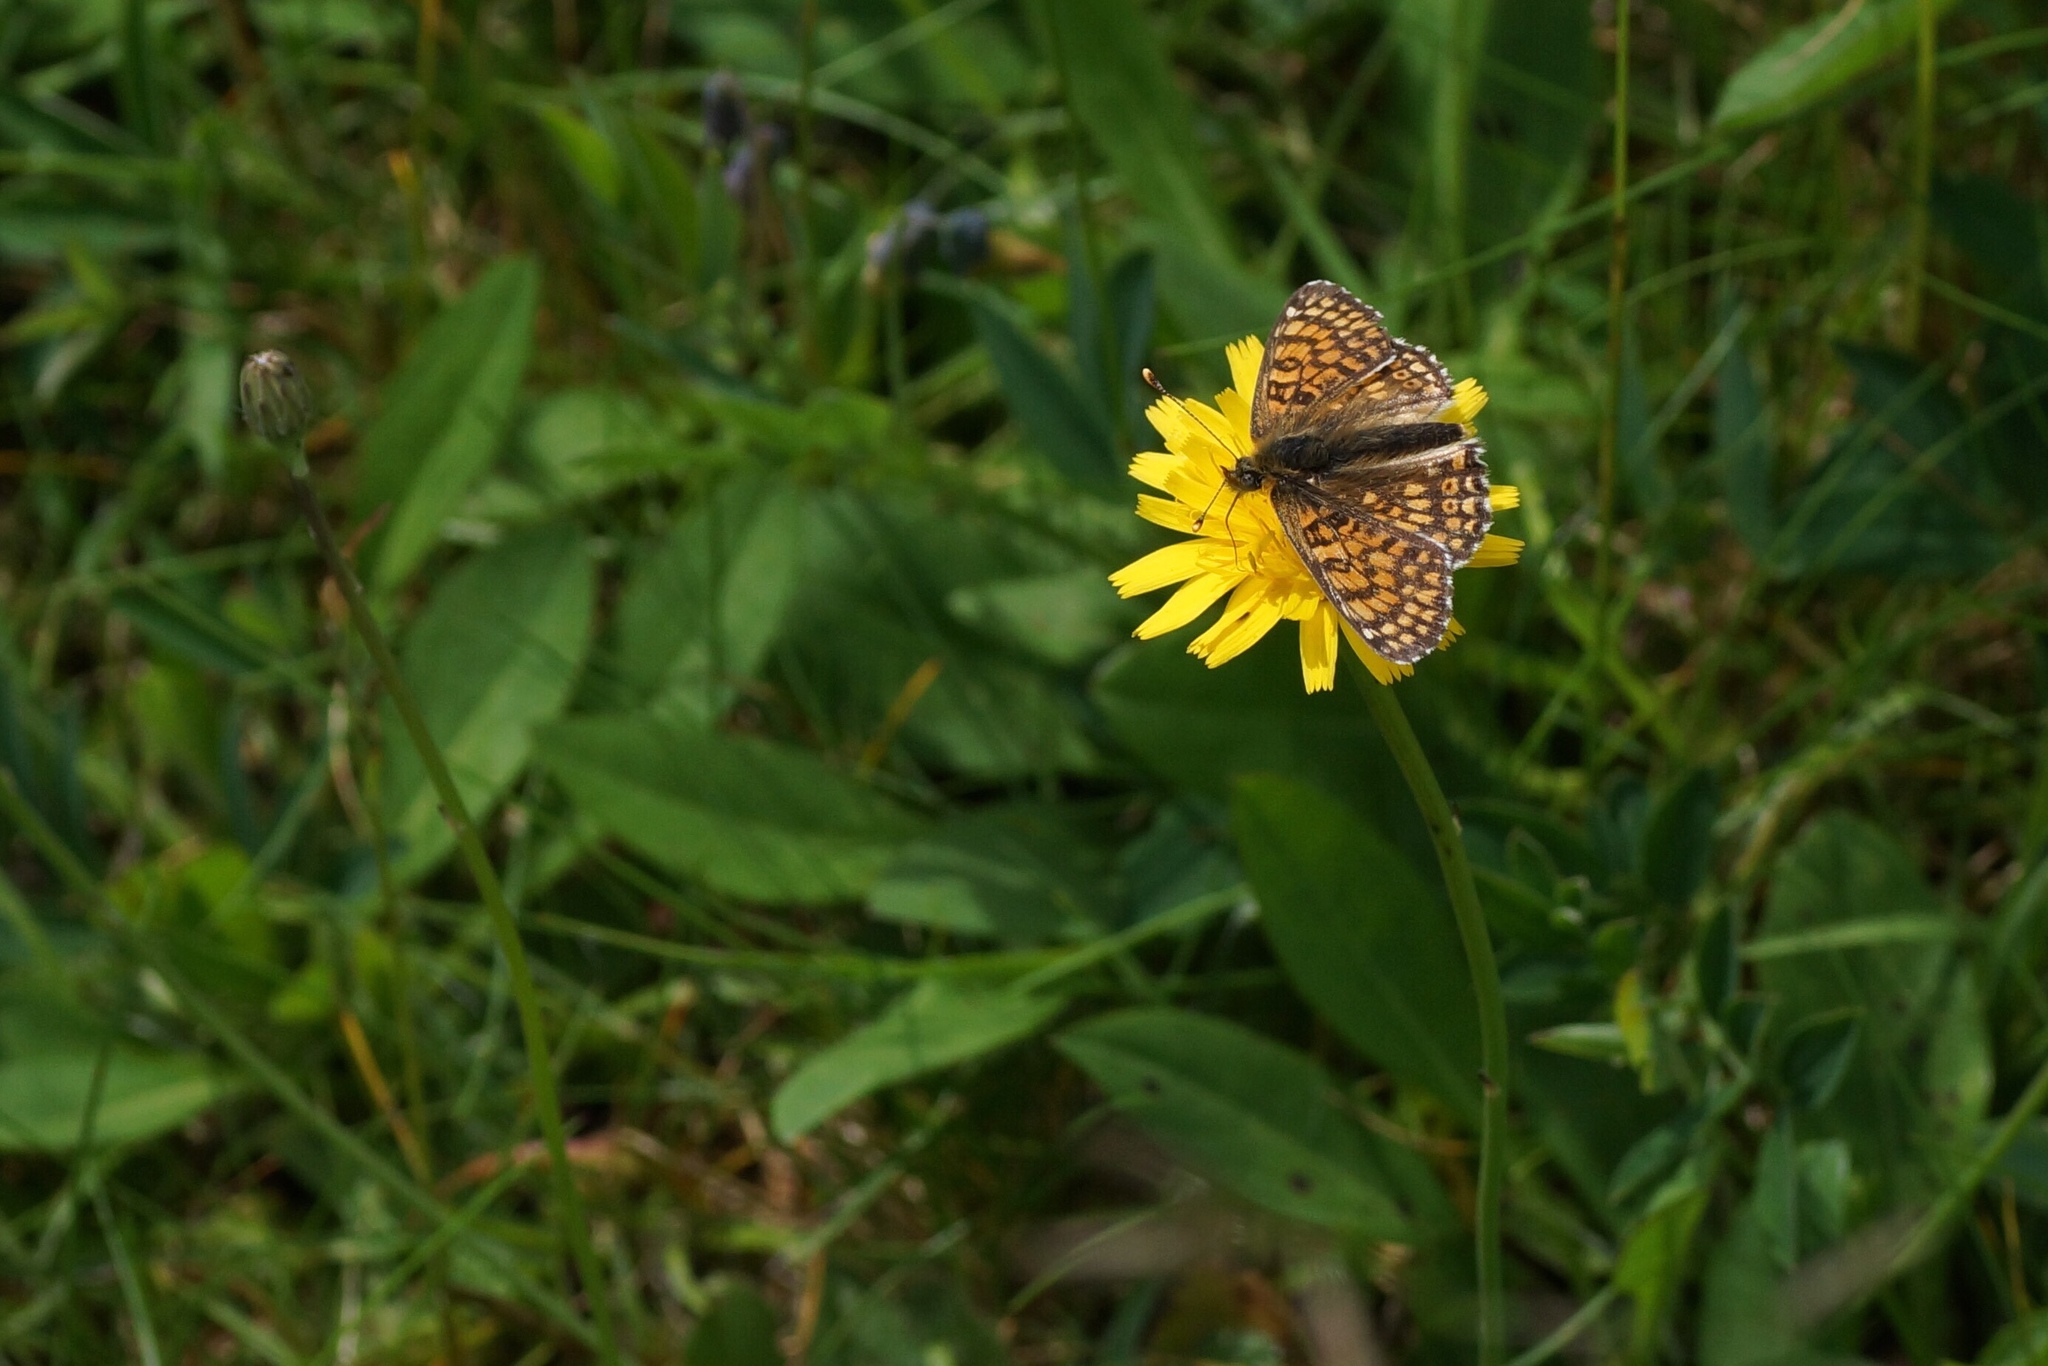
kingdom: Animalia
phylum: Arthropoda
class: Insecta
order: Lepidoptera
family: Nymphalidae
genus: Melitaea
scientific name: Melitaea cinxia
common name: Glanville fritillary
